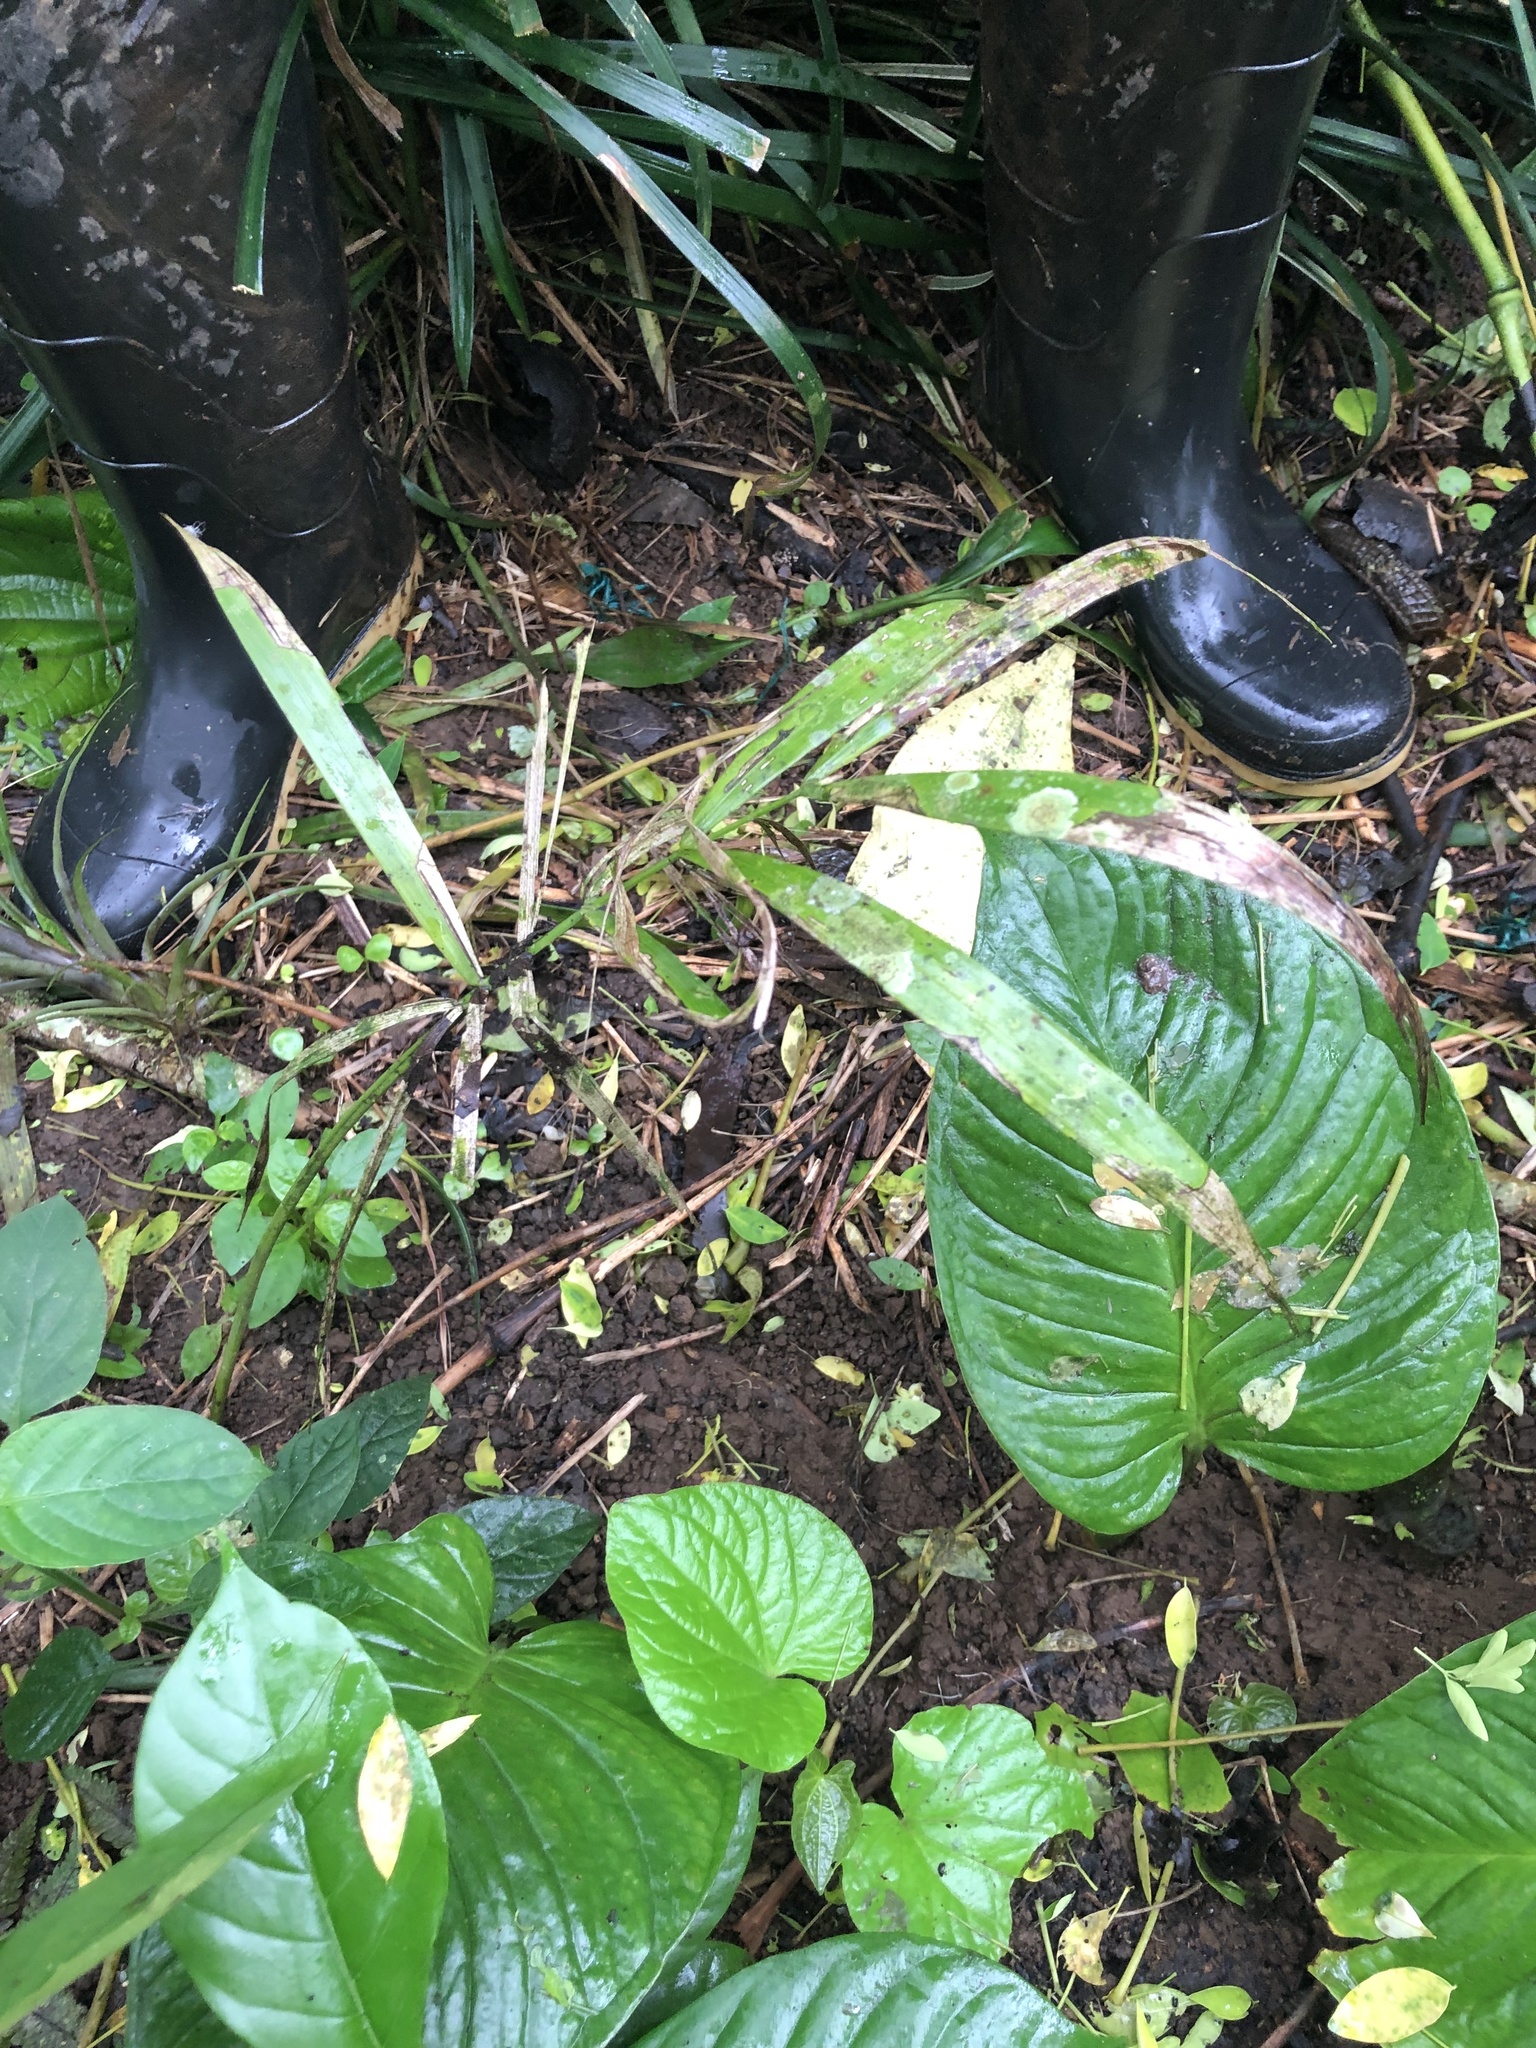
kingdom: Plantae
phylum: Tracheophyta
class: Liliopsida
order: Arecales
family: Arecaceae
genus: Euterpe
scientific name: Euterpe oleracea
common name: Assai palm
